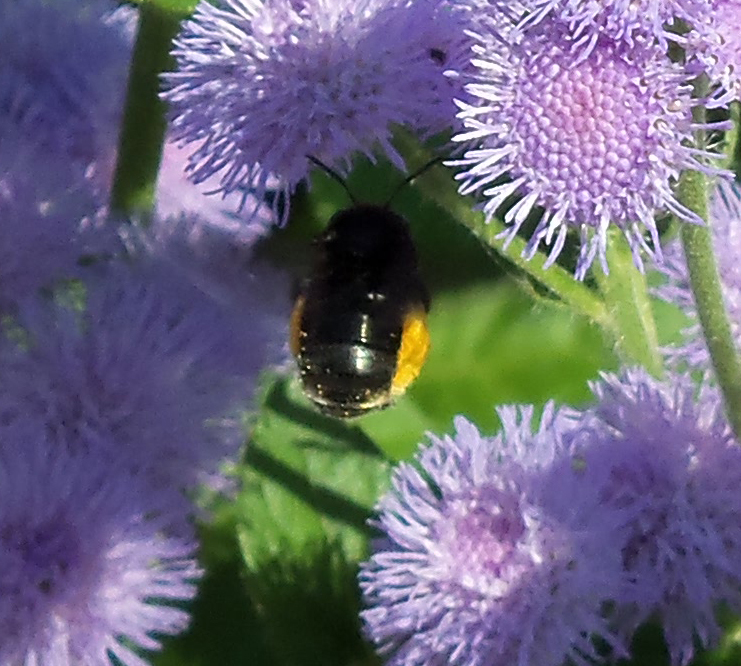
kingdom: Animalia
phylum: Arthropoda
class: Insecta
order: Hymenoptera
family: Apidae
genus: Melissodes
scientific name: Melissodes bimaculatus
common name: Two-spotted long-horned bee
